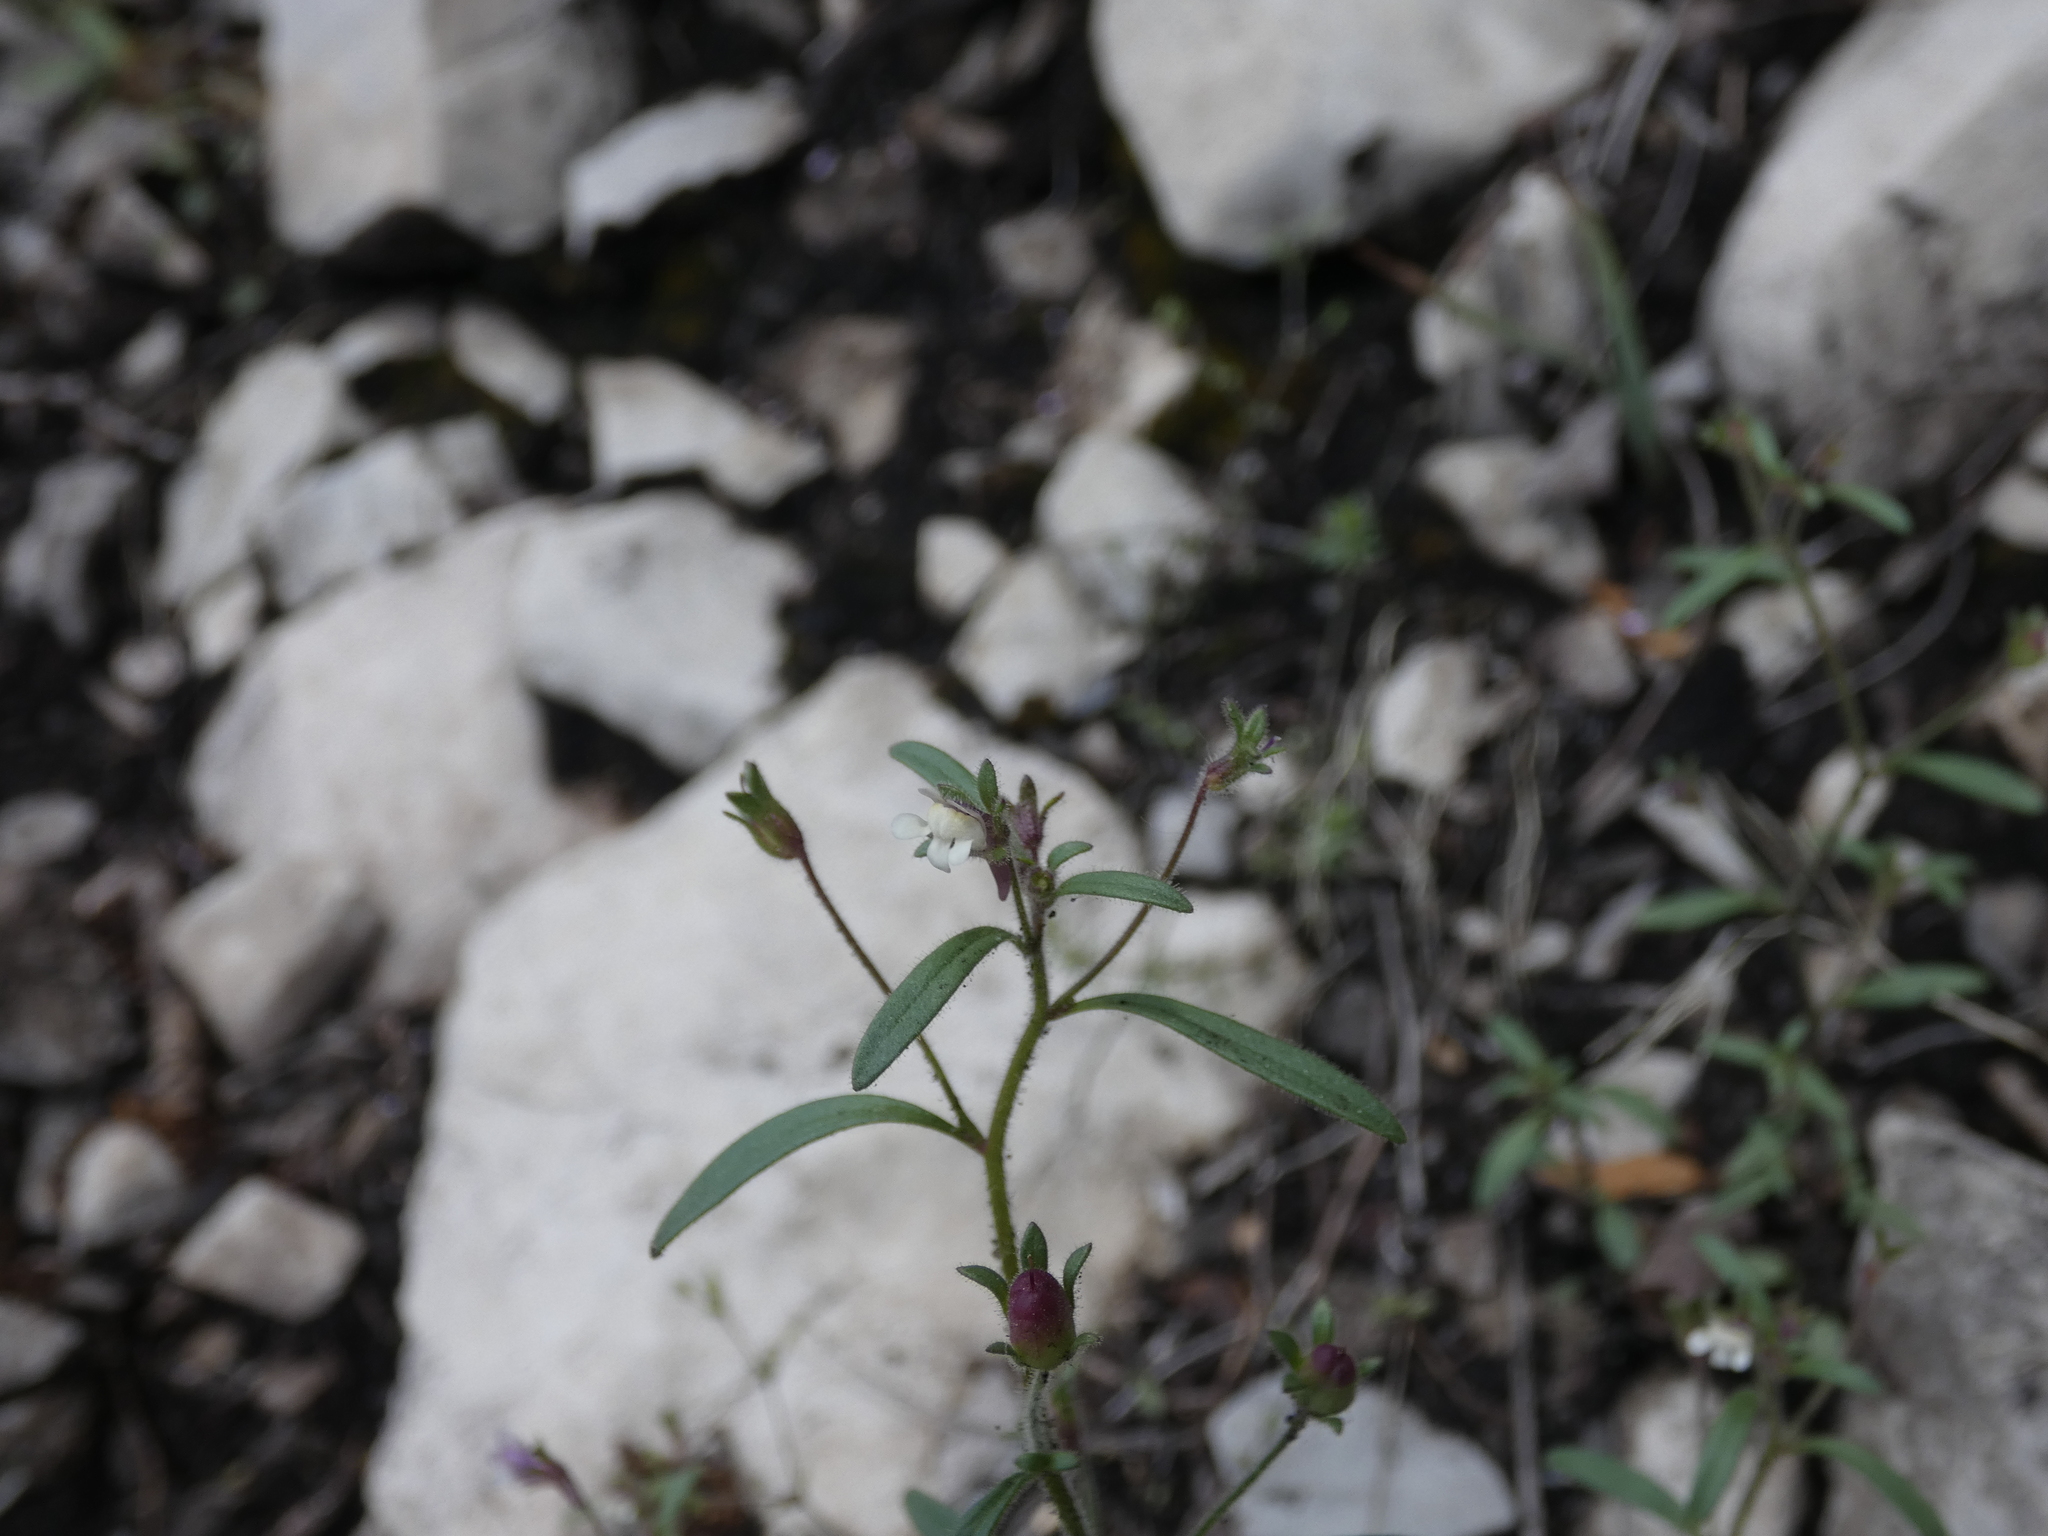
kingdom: Plantae
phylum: Tracheophyta
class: Magnoliopsida
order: Lamiales
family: Plantaginaceae
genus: Chaenorhinum
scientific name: Chaenorhinum minus
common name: Dwarf snapdragon
